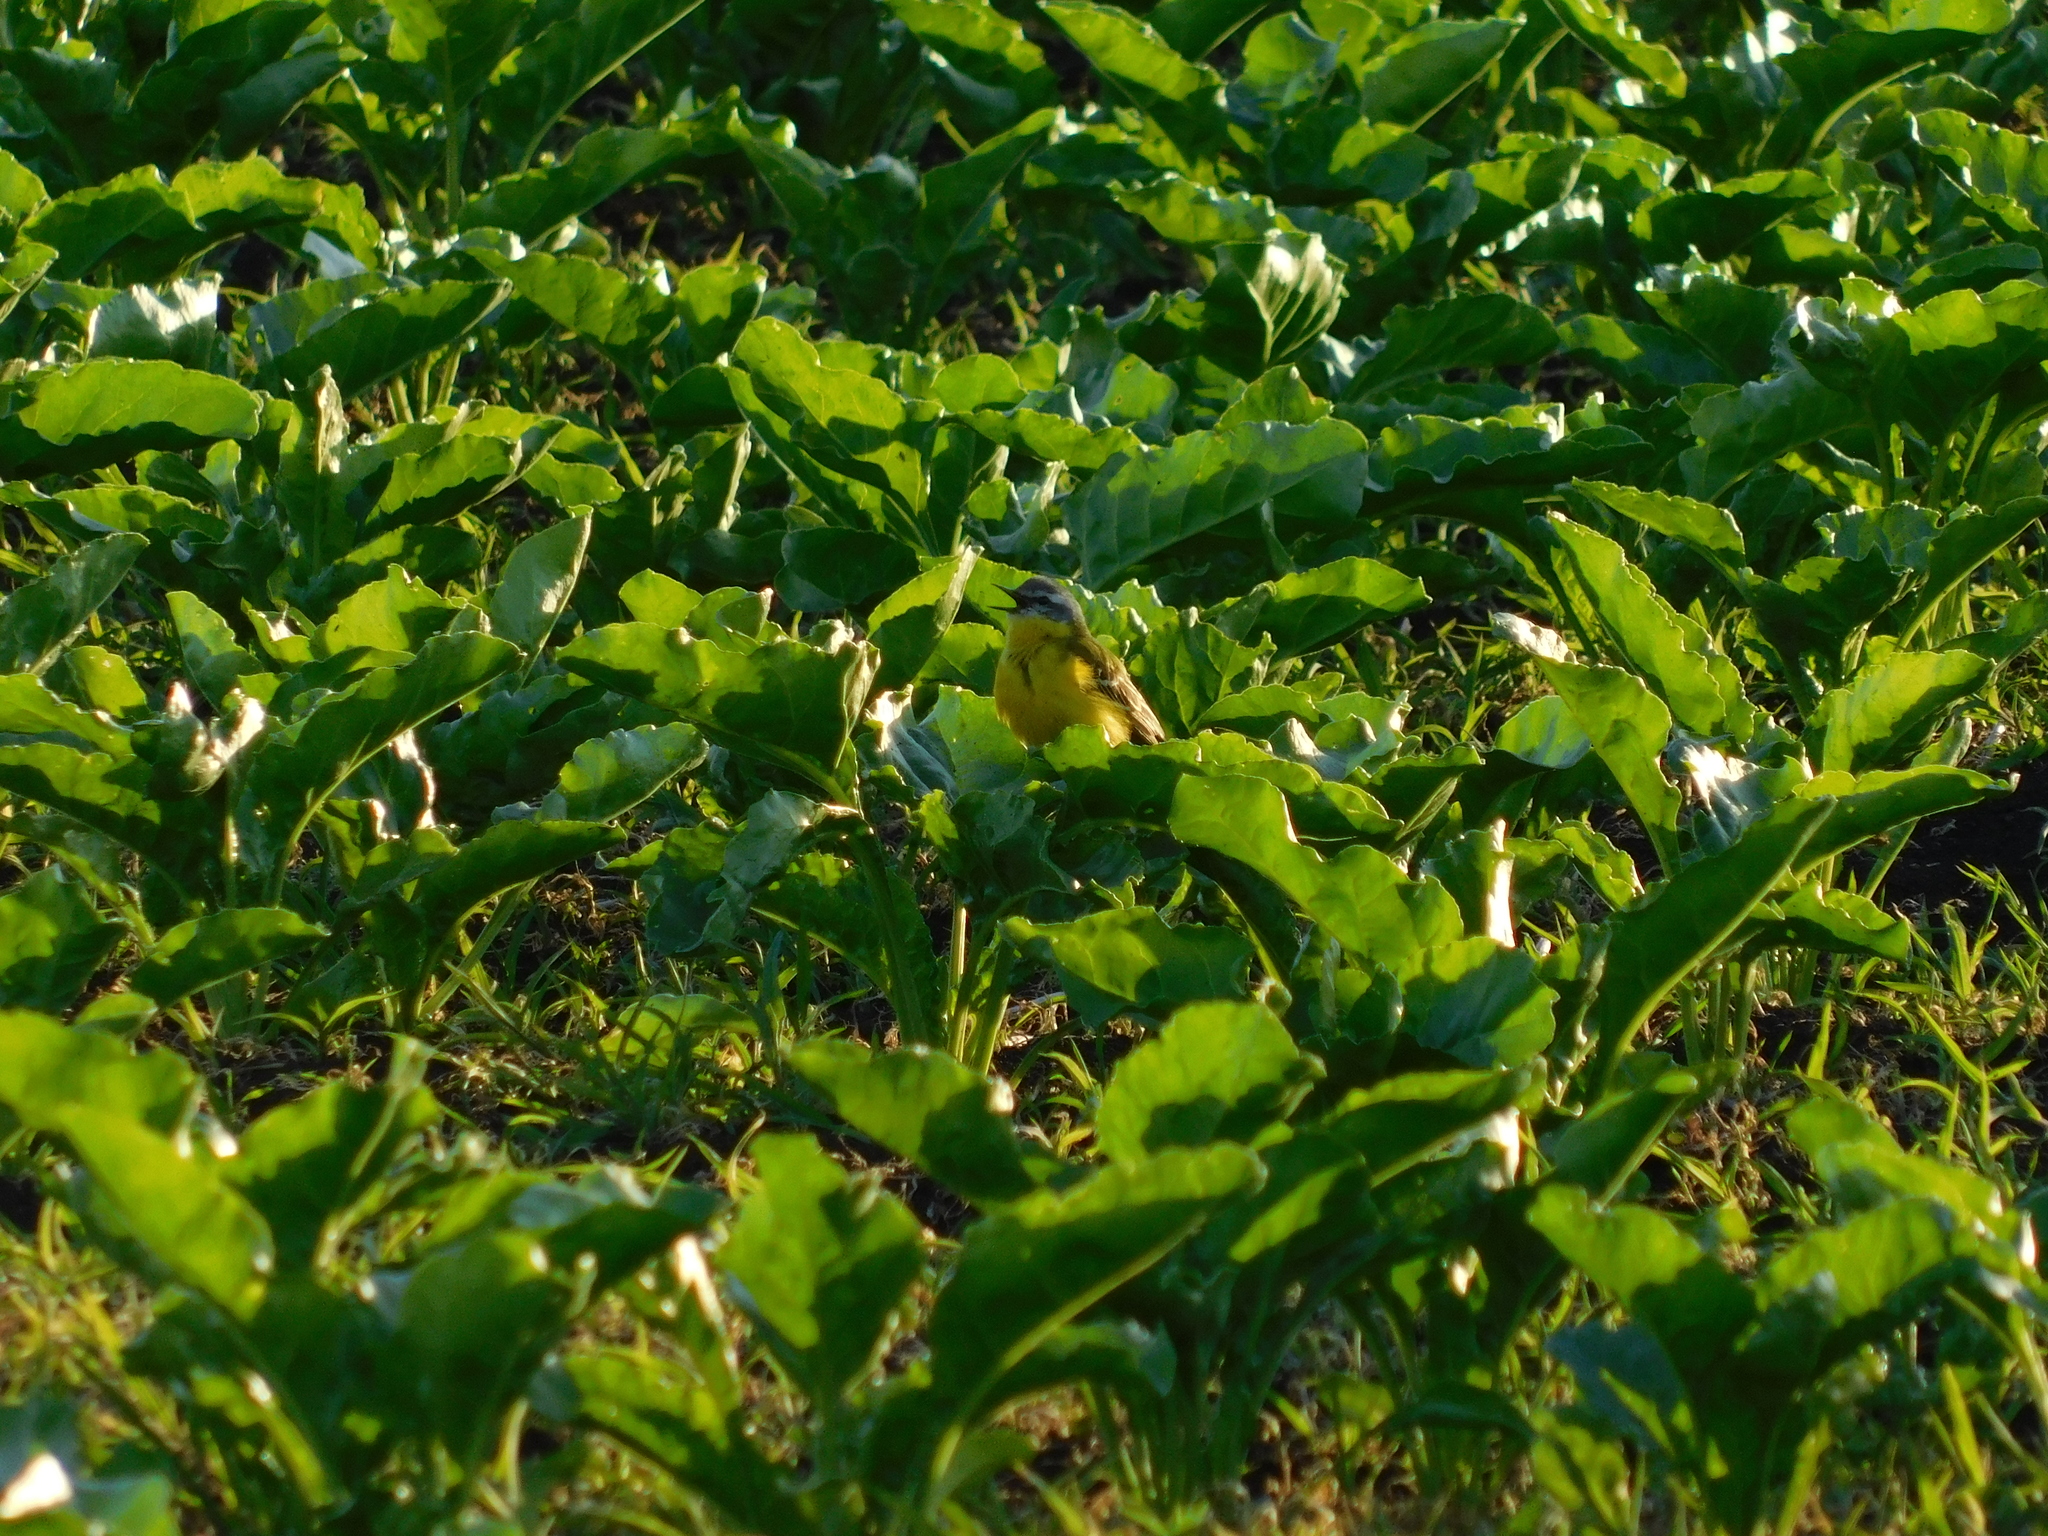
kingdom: Animalia
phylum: Chordata
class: Aves
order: Passeriformes
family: Motacillidae
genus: Motacilla
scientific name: Motacilla flava
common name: Western yellow wagtail
